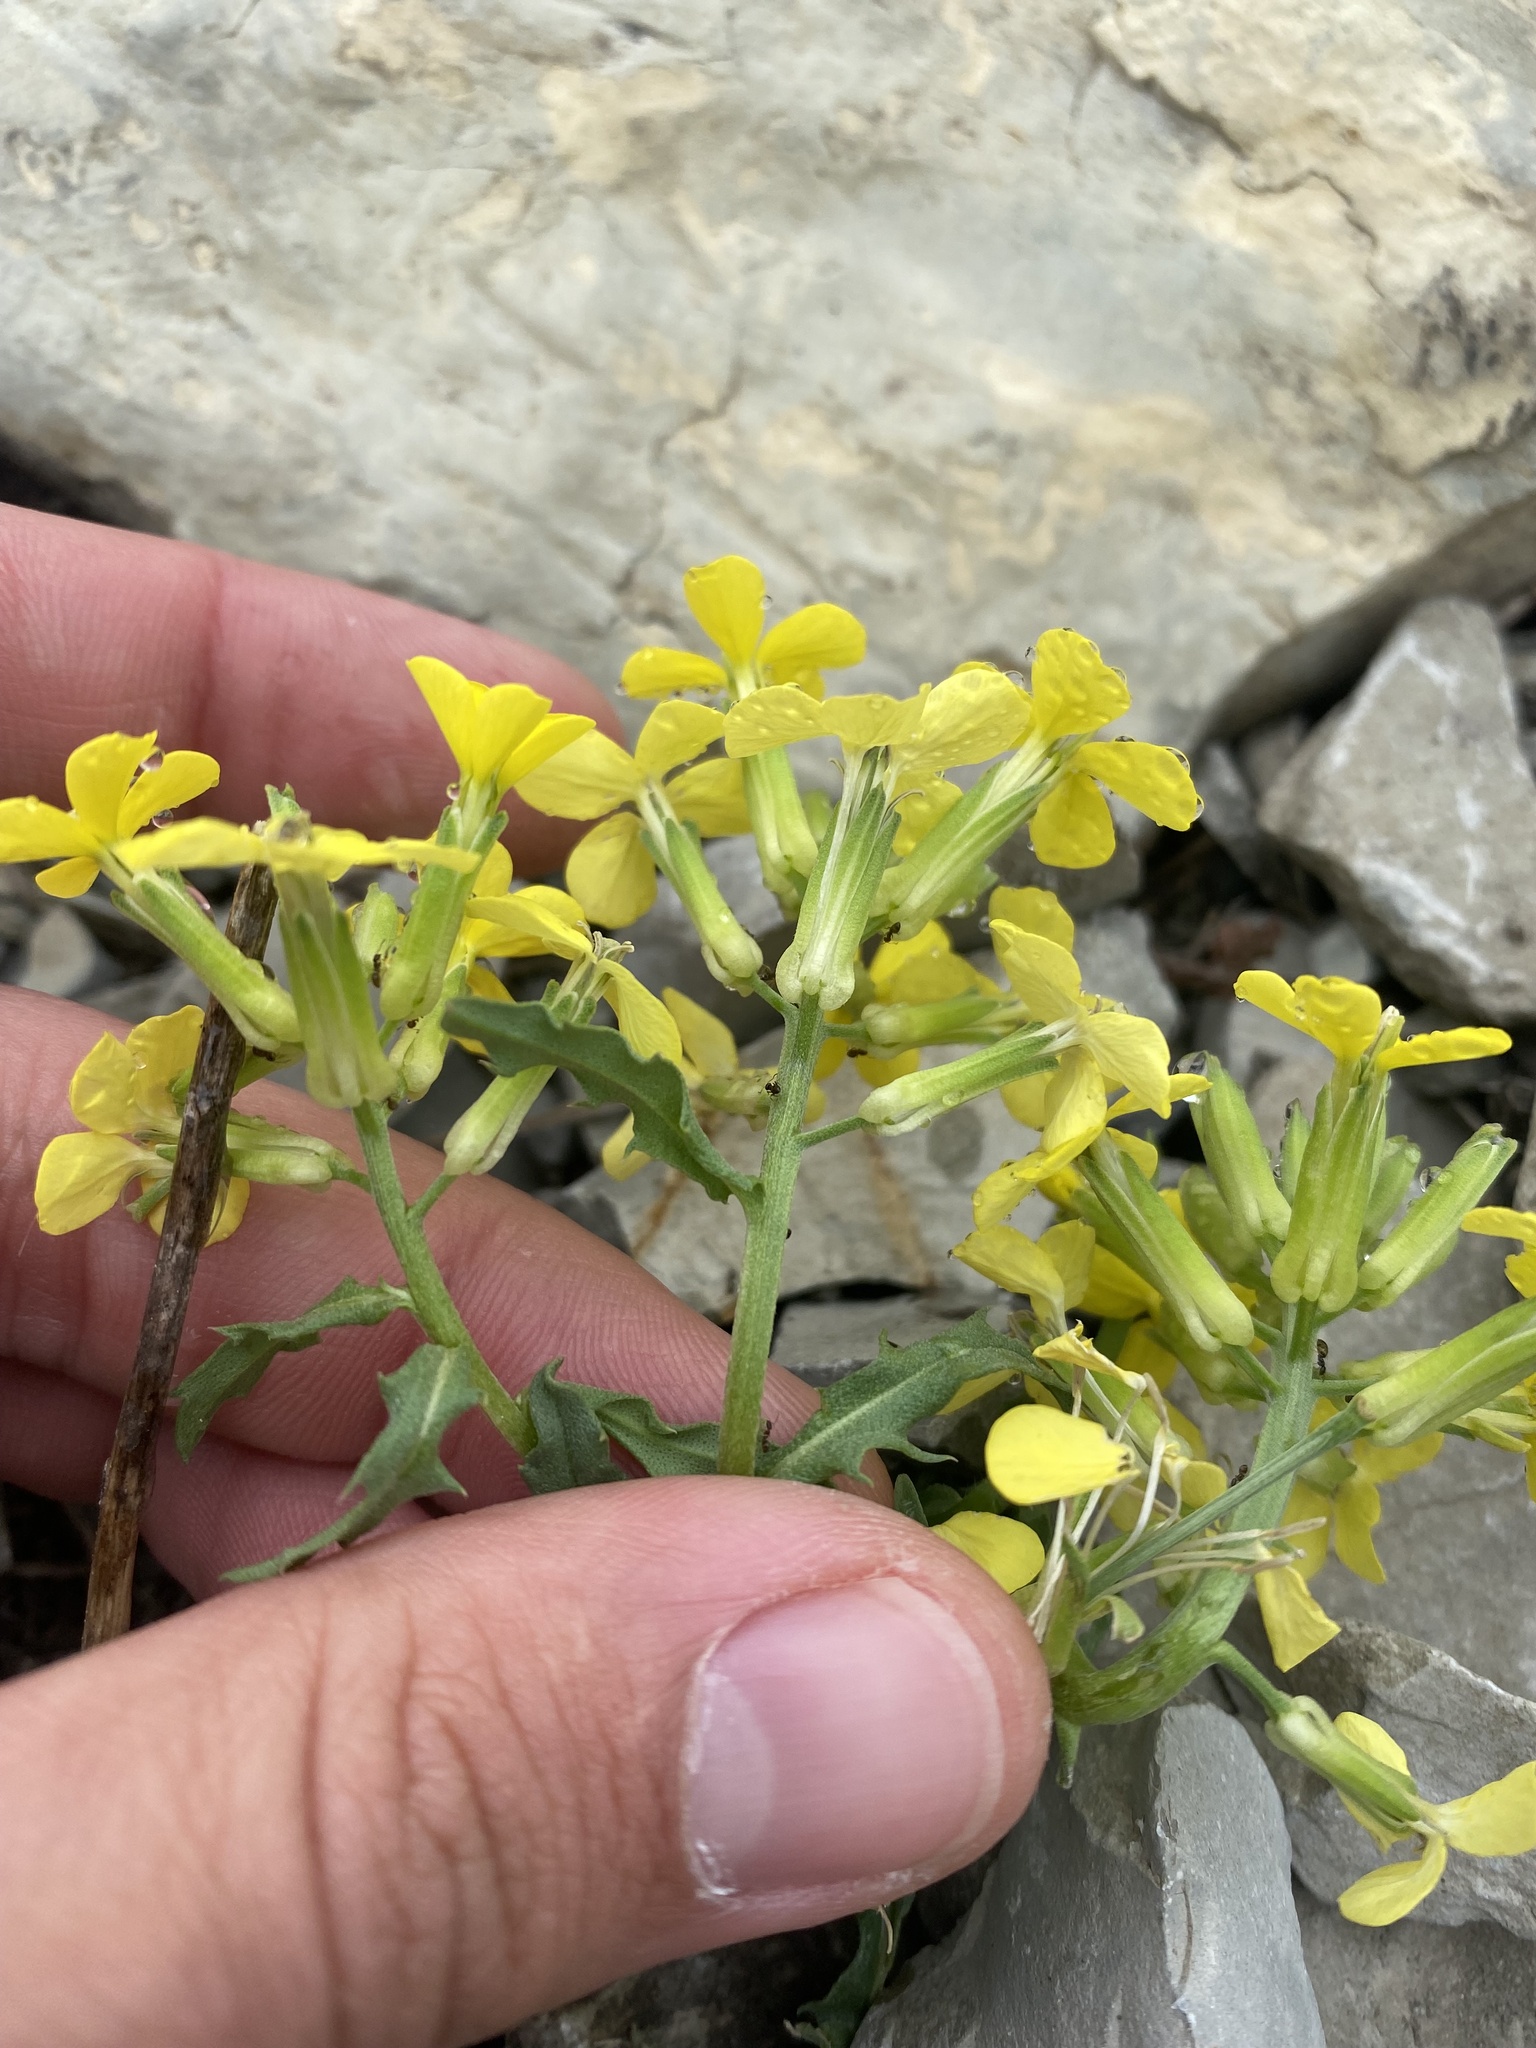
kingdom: Plantae
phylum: Tracheophyta
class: Magnoliopsida
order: Brassicales
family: Brassicaceae
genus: Erysimum
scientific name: Erysimum callicarpum
